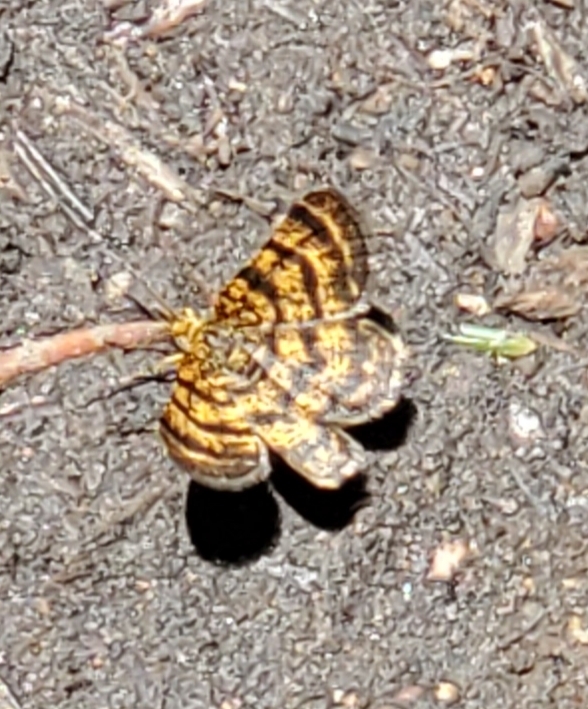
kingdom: Animalia
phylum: Arthropoda
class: Insecta
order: Lepidoptera
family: Geometridae
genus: Macaria
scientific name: Macaria truncataria
